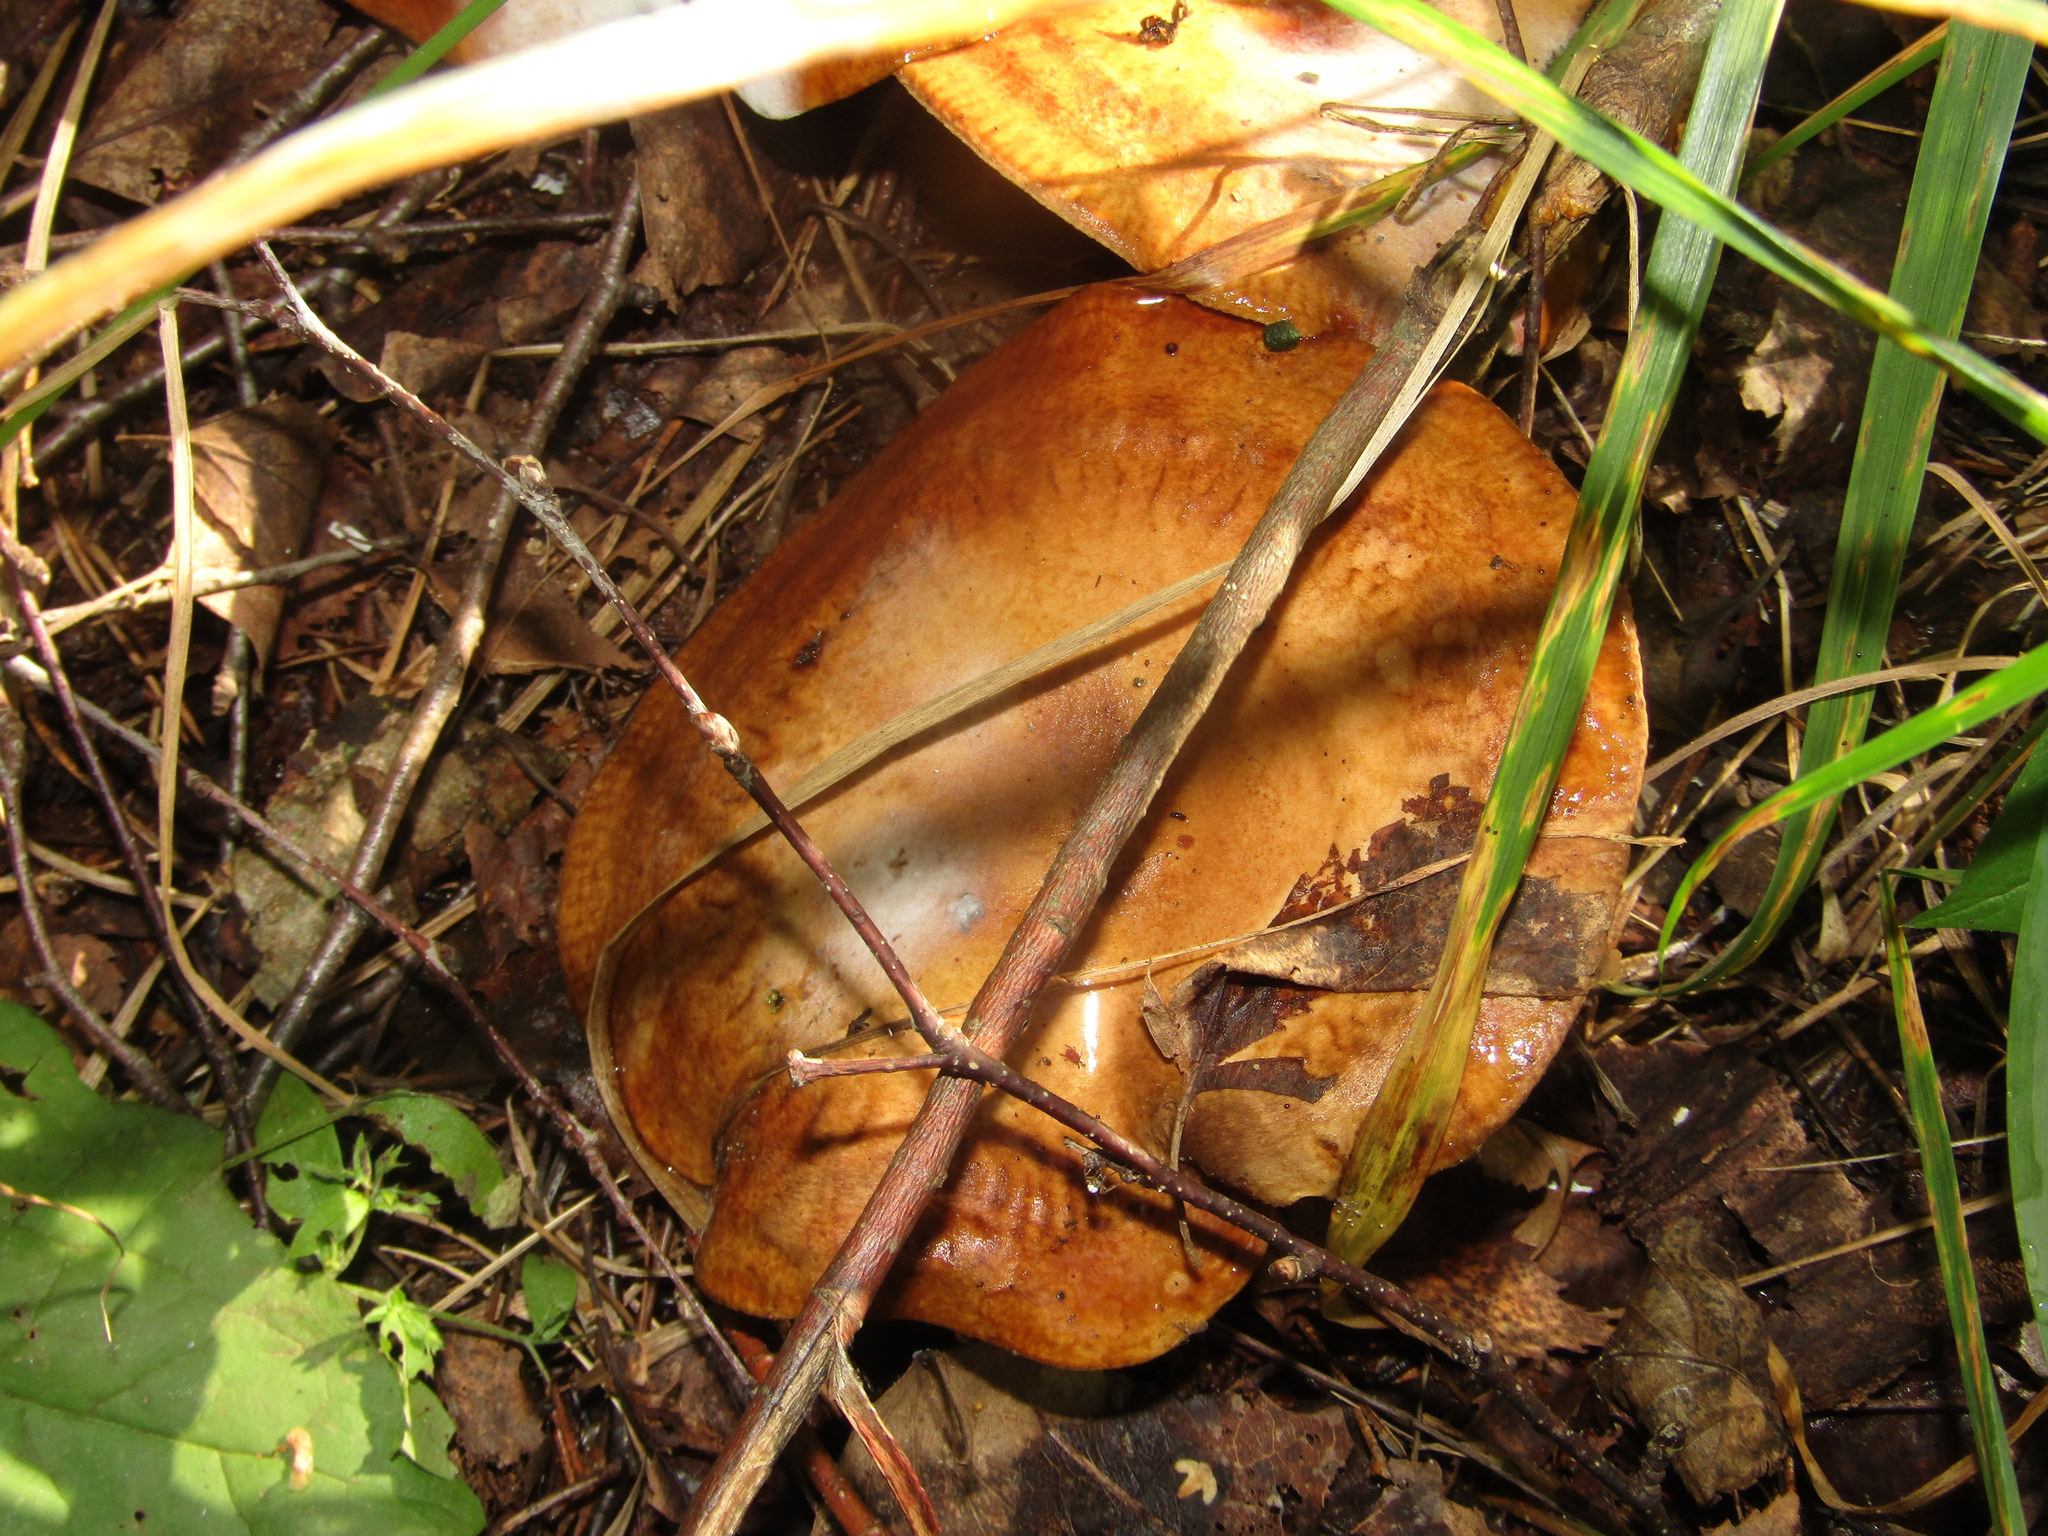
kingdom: Fungi
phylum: Basidiomycota
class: Agaricomycetes
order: Boletales
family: Paxillaceae
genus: Paxillus
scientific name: Paxillus involutus
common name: Brown roll rim
